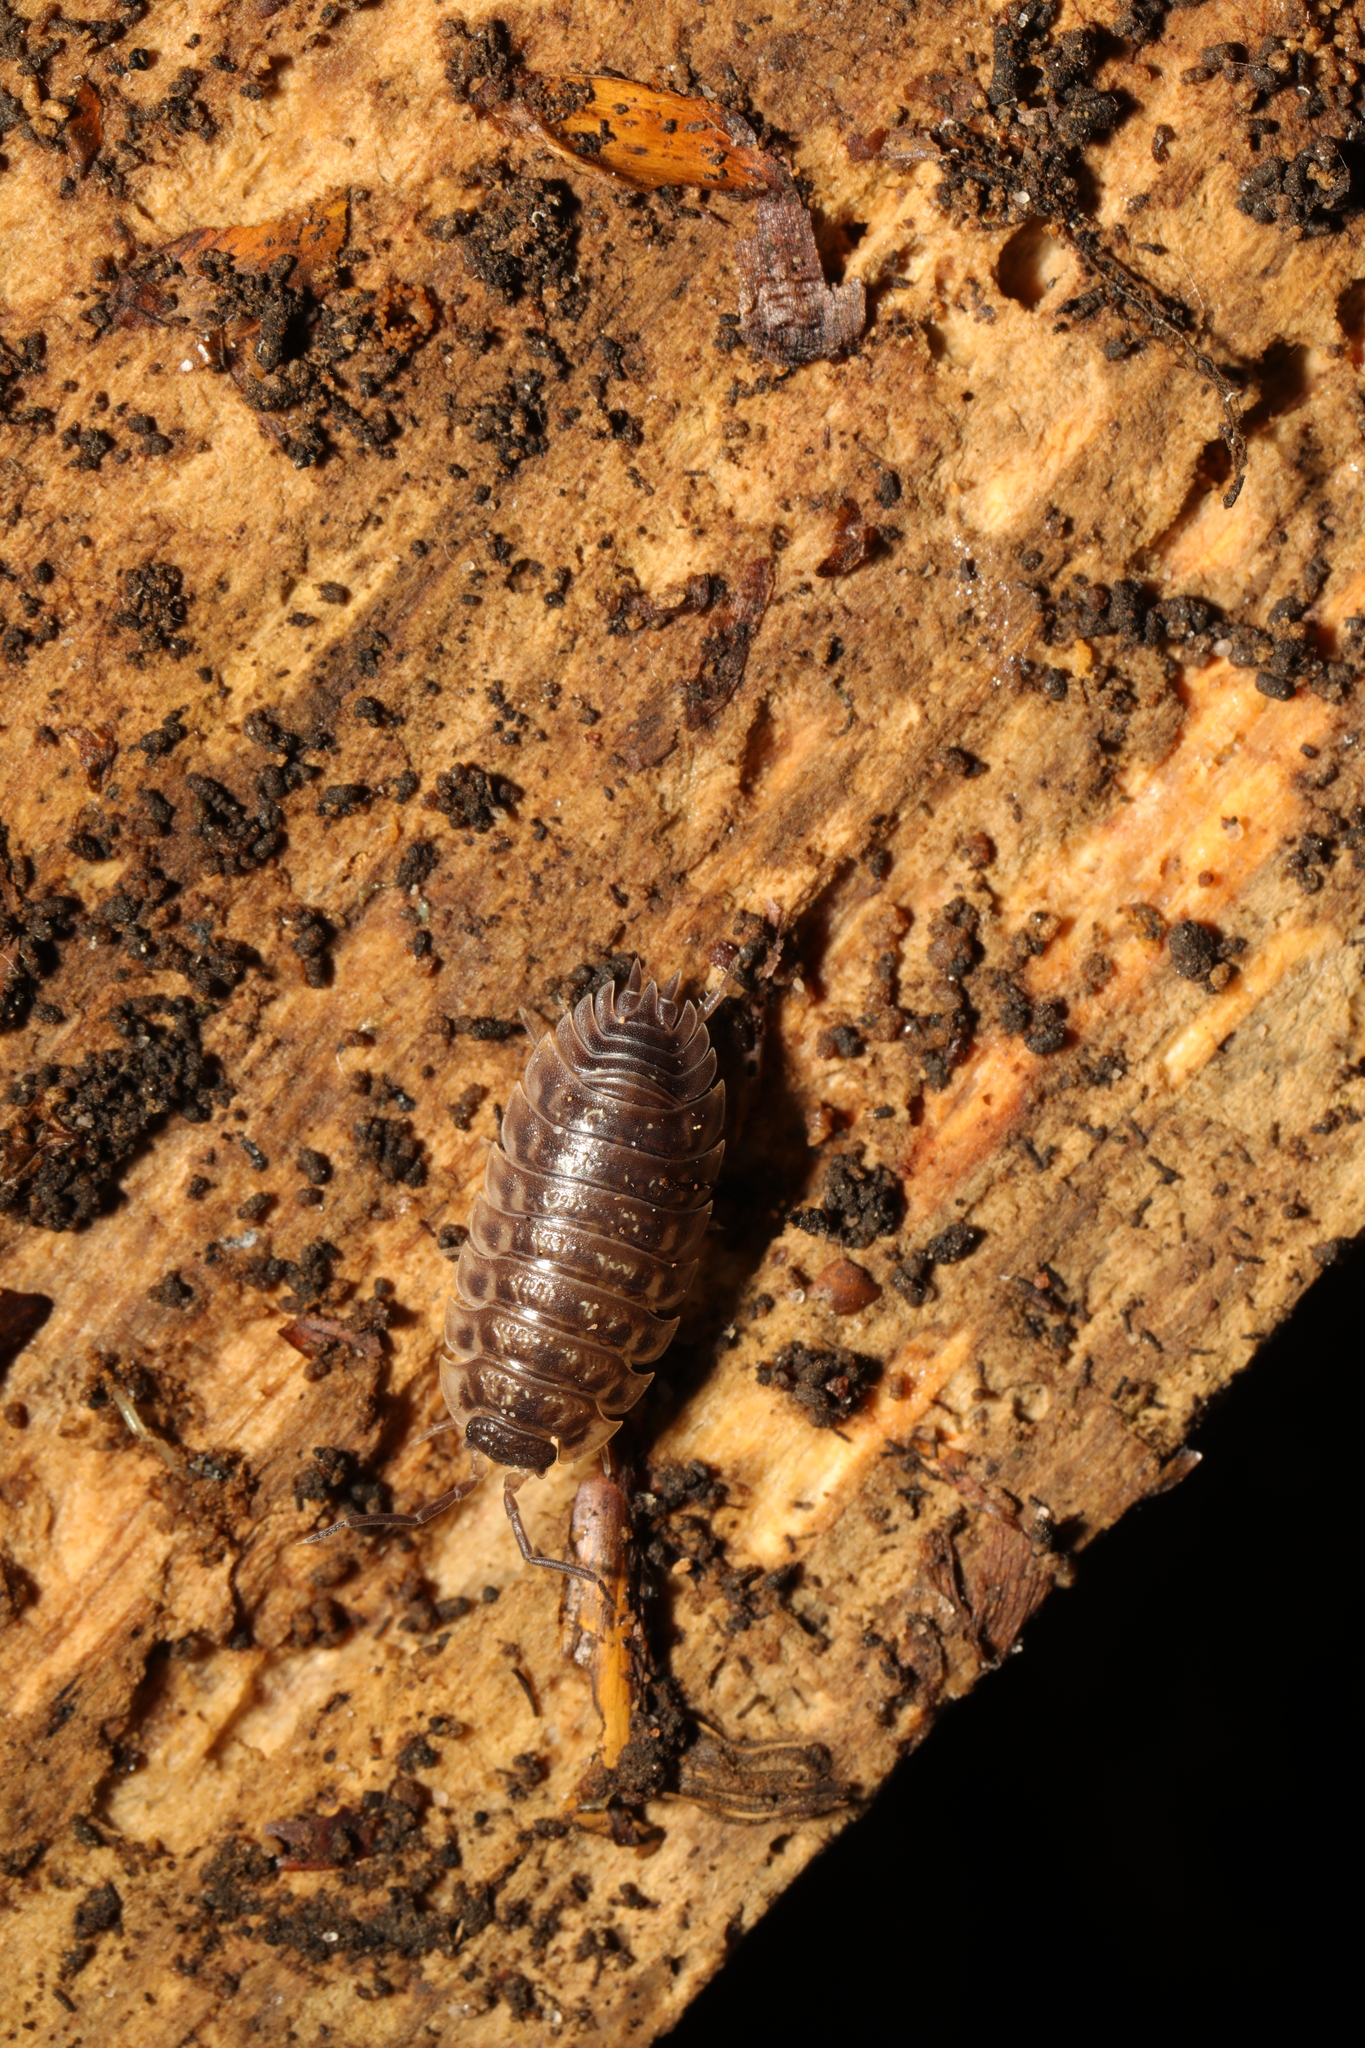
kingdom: Animalia
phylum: Arthropoda
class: Malacostraca
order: Isopoda
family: Oniscidae
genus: Oniscus
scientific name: Oniscus asellus
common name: Common shiny woodlouse
